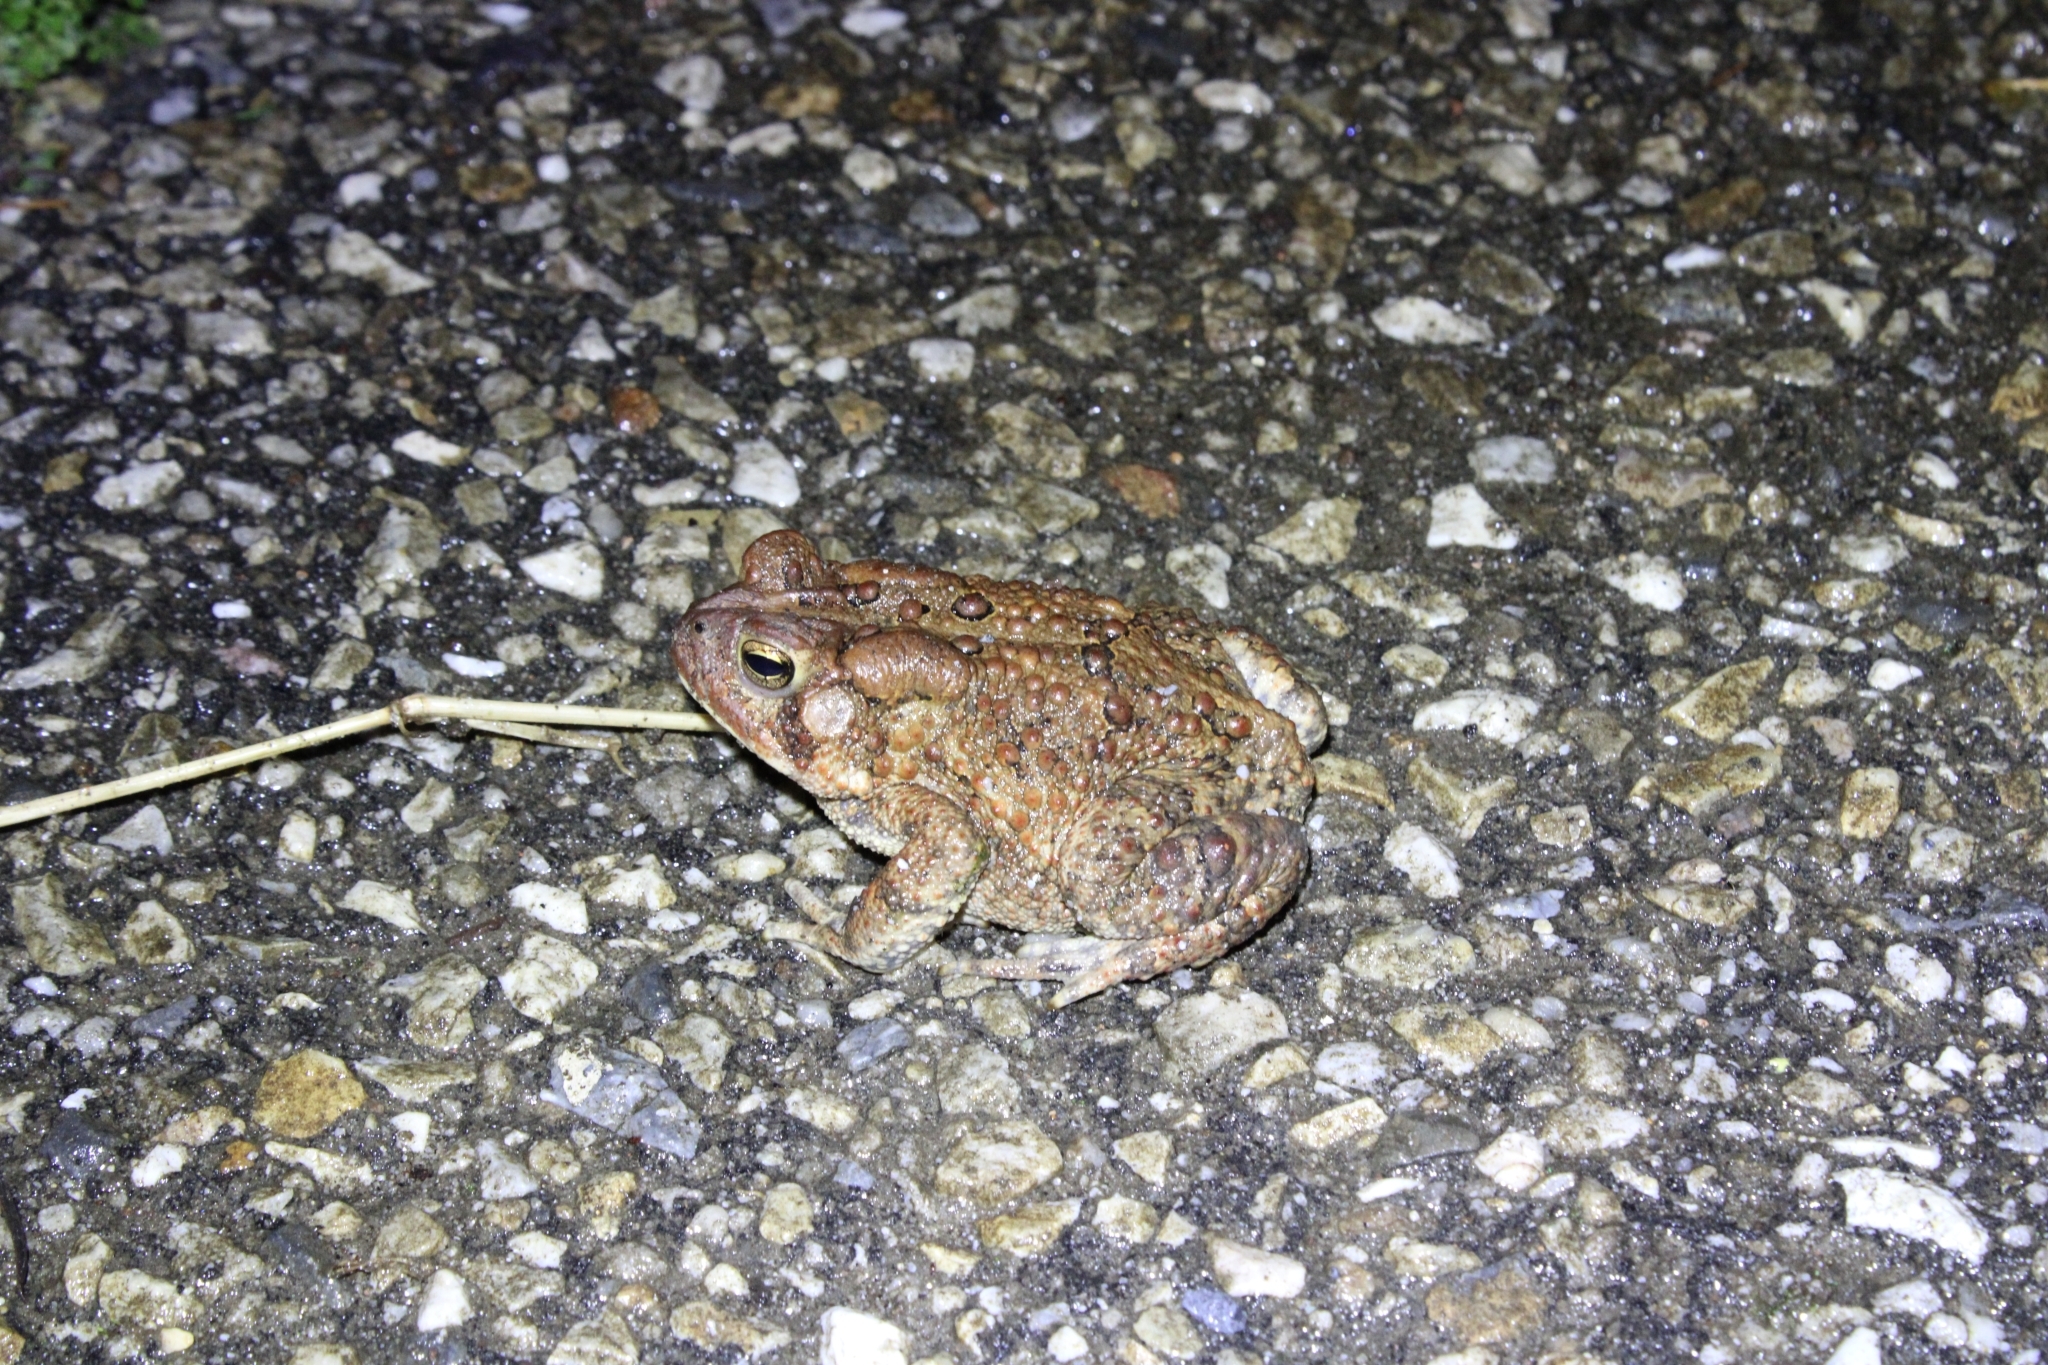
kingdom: Animalia
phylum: Chordata
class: Amphibia
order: Anura
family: Bufonidae
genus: Anaxyrus
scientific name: Anaxyrus americanus
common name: American toad
